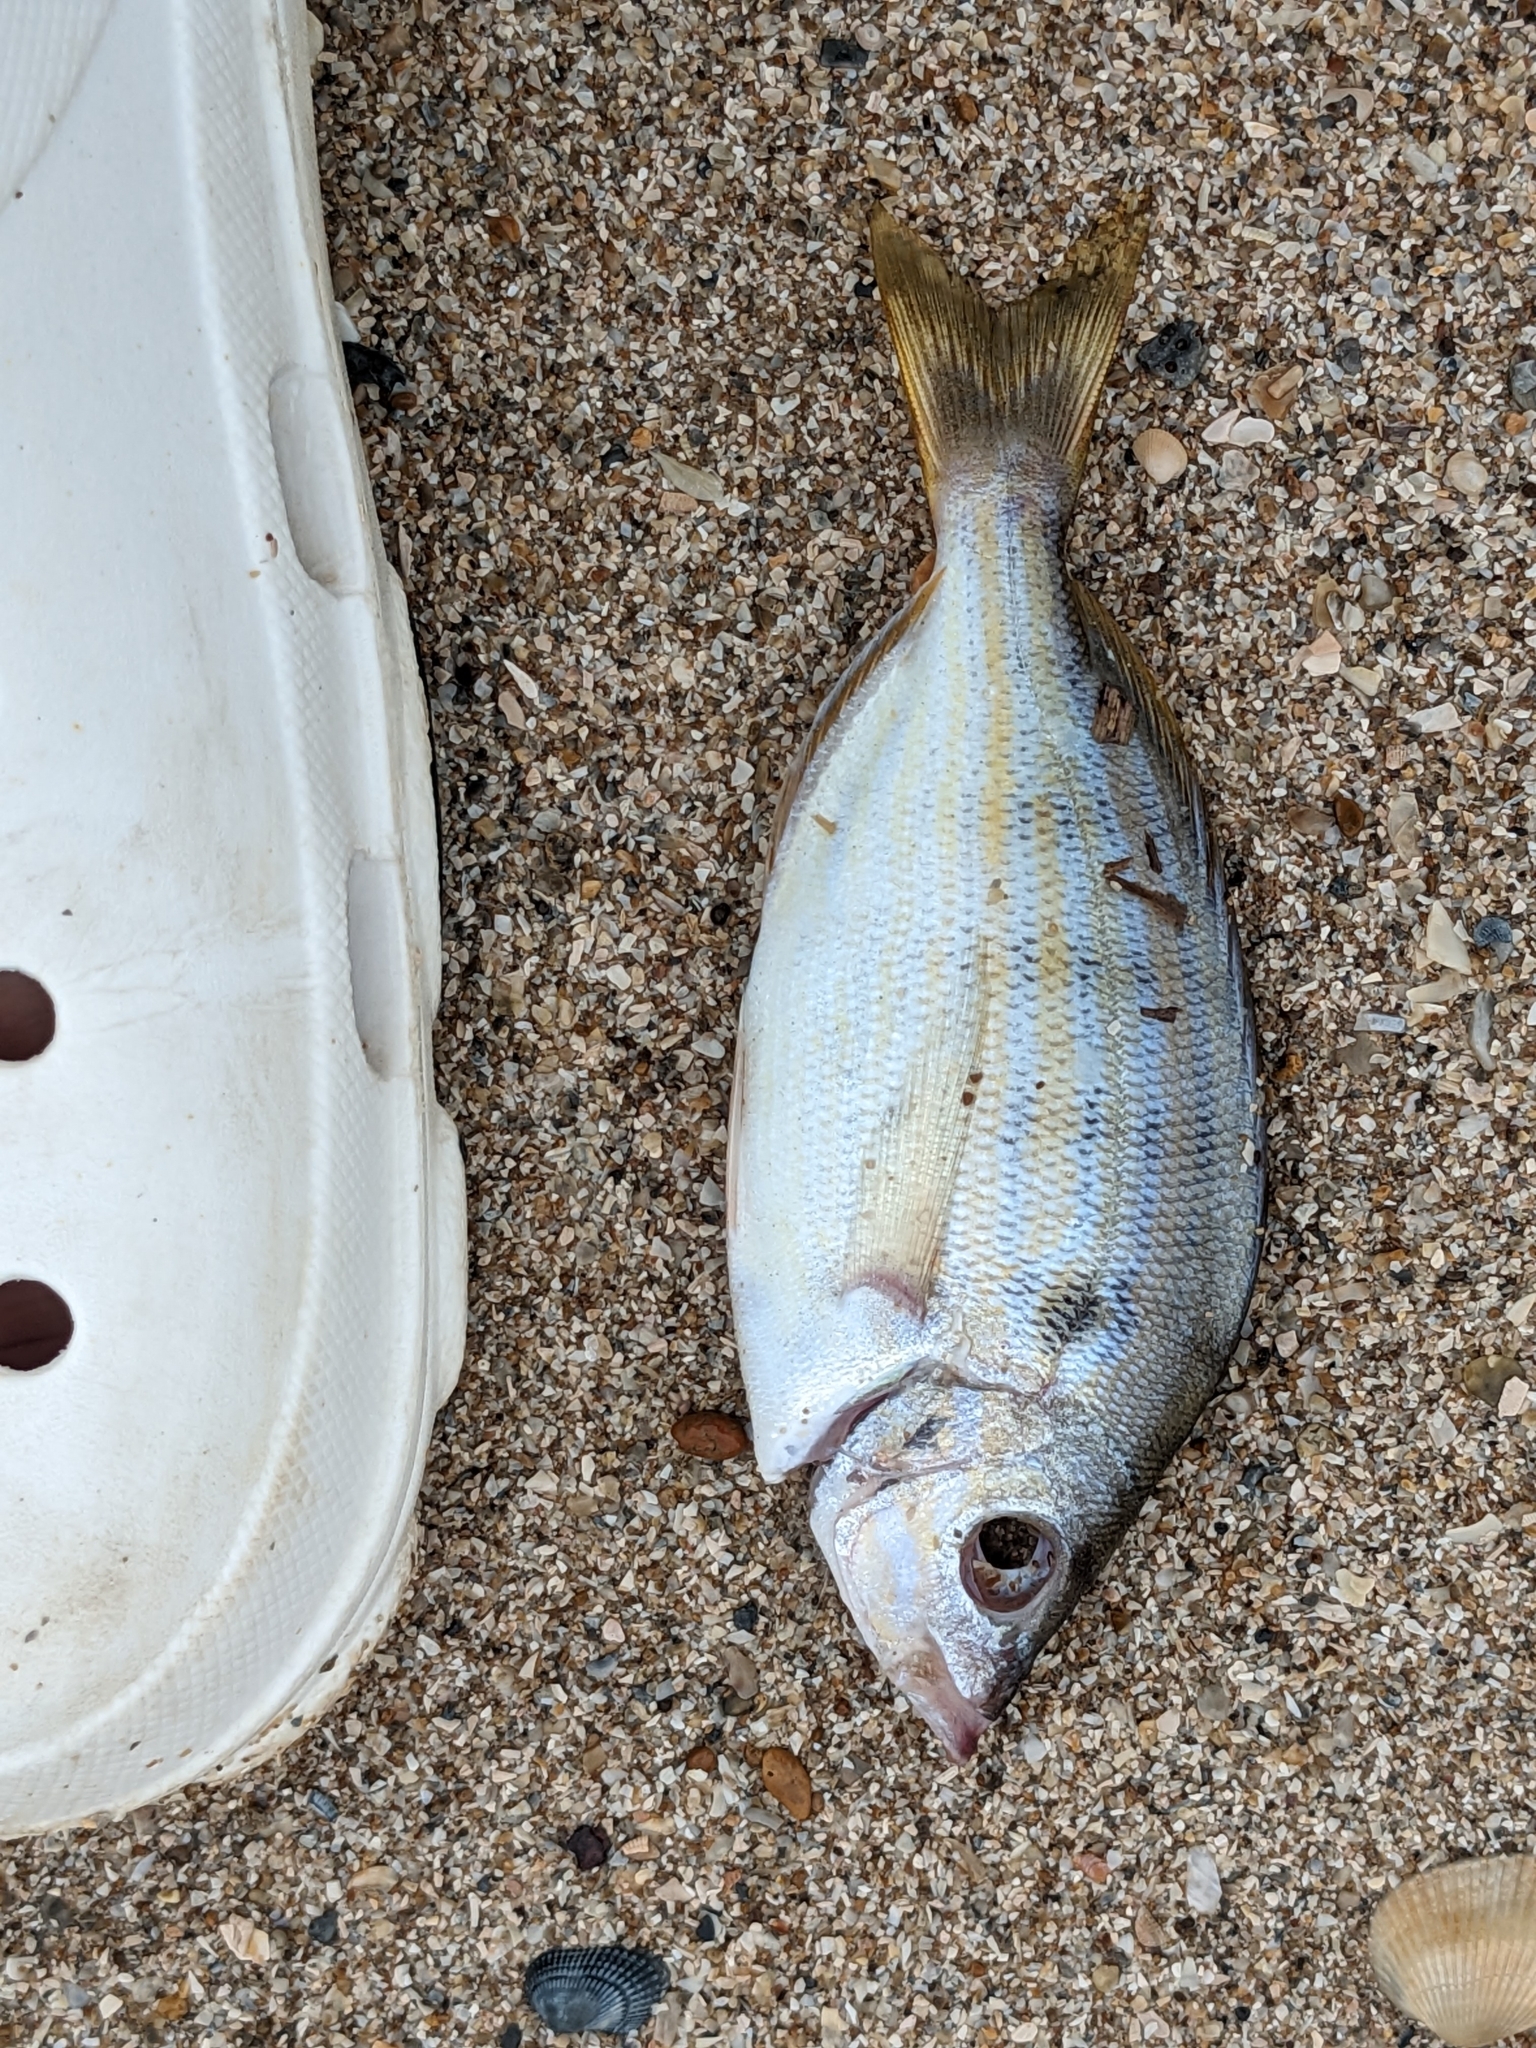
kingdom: Animalia
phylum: Chordata
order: Perciformes
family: Sparidae
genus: Lagodon
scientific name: Lagodon rhomboides
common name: Pinfish
